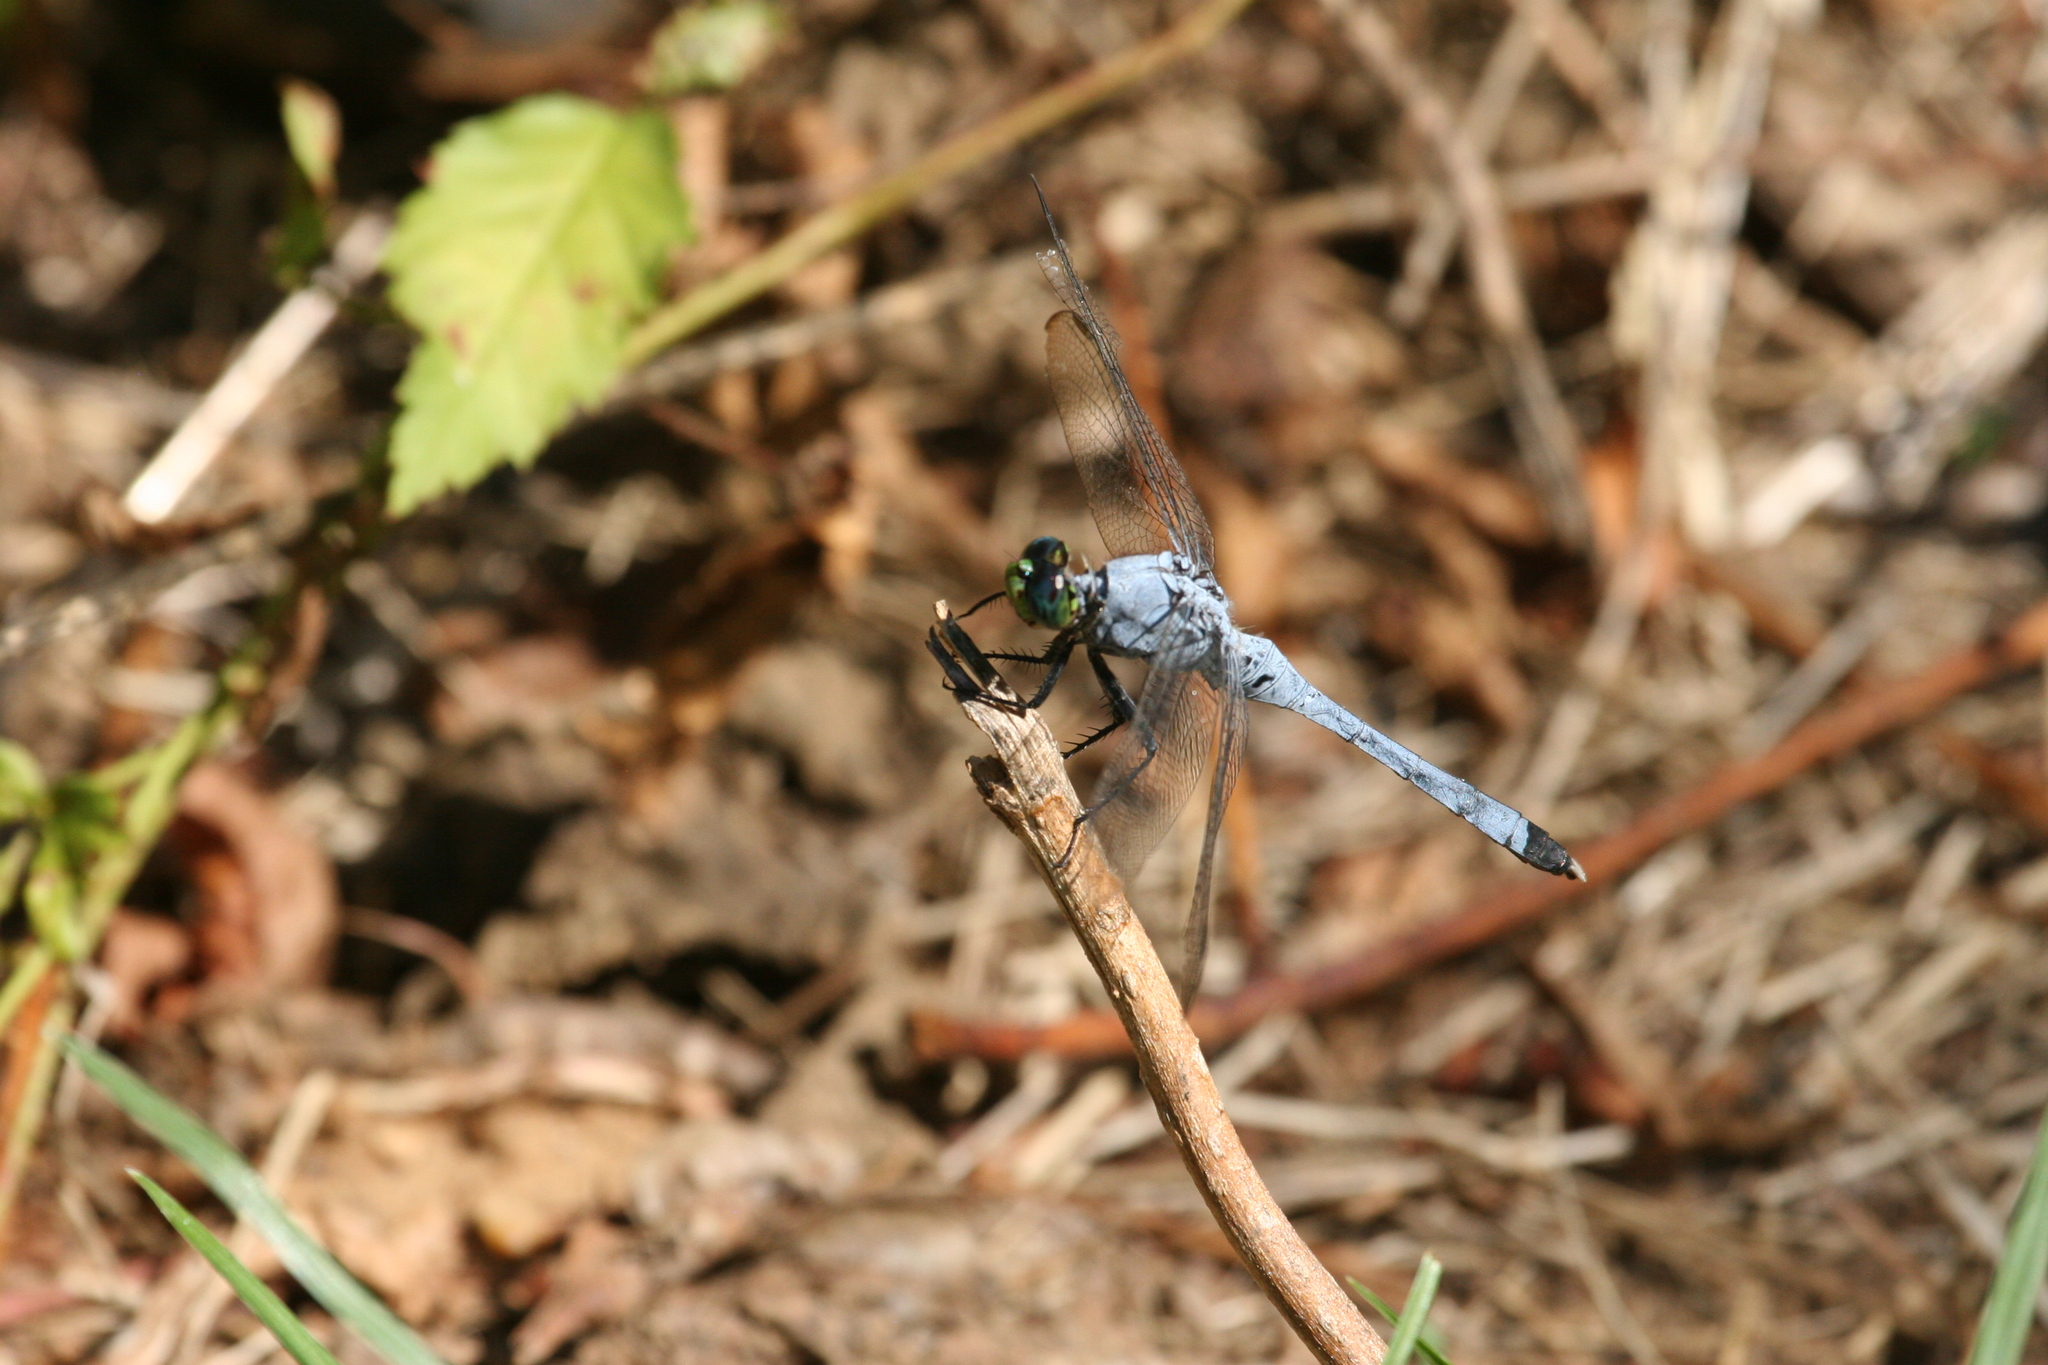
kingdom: Animalia
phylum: Arthropoda
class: Insecta
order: Odonata
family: Libellulidae
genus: Erythemis
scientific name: Erythemis simplicicollis
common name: Eastern pondhawk
